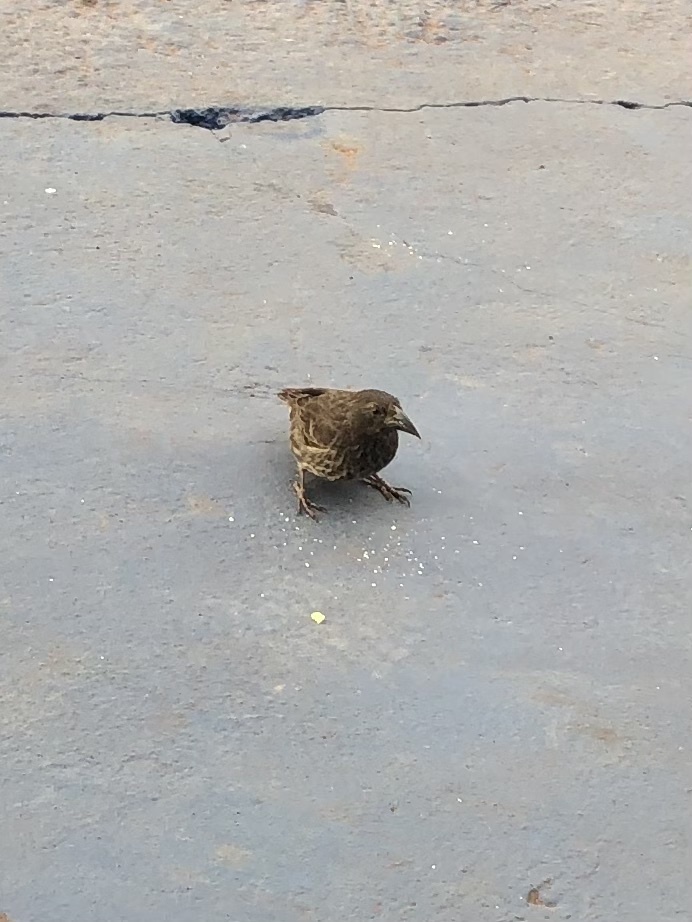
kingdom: Animalia
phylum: Chordata
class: Aves
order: Passeriformes
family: Thraupidae
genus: Geospiza
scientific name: Geospiza scandens
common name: Common cactus-finch
